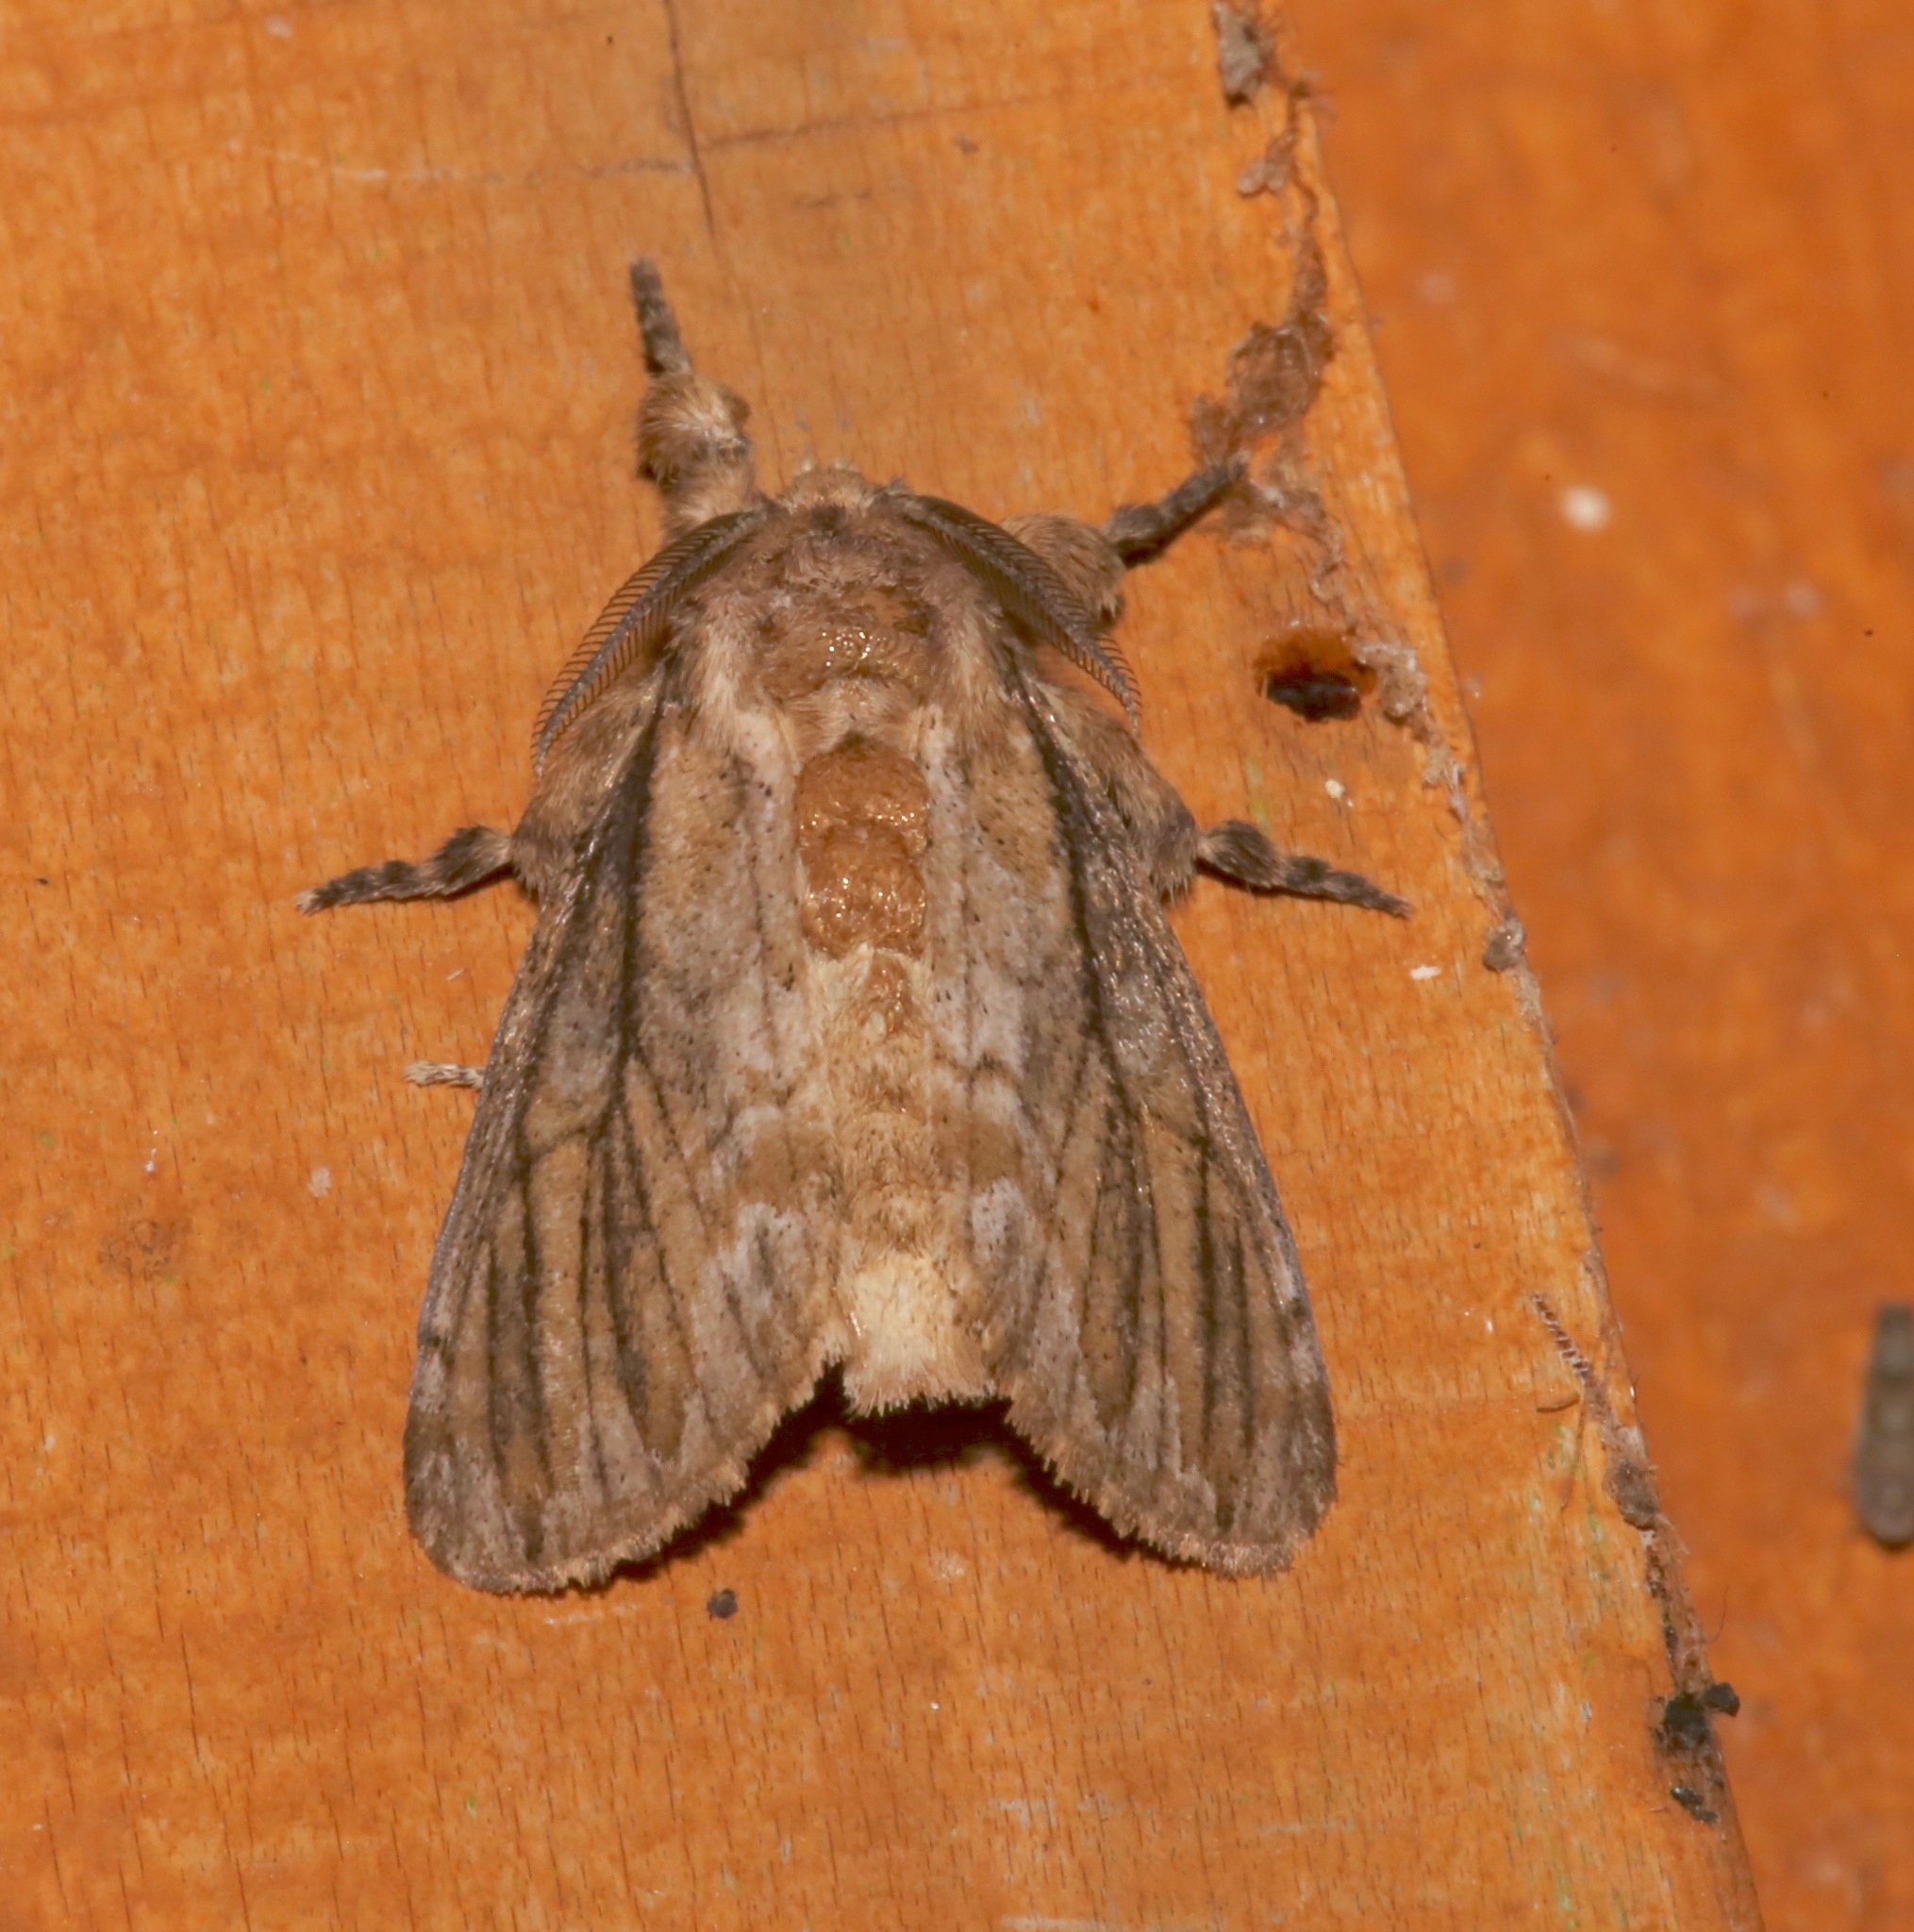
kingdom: Animalia
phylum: Arthropoda
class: Insecta
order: Lepidoptera
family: Erebidae
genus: Dasychira
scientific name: Dasychira atrivenosa
